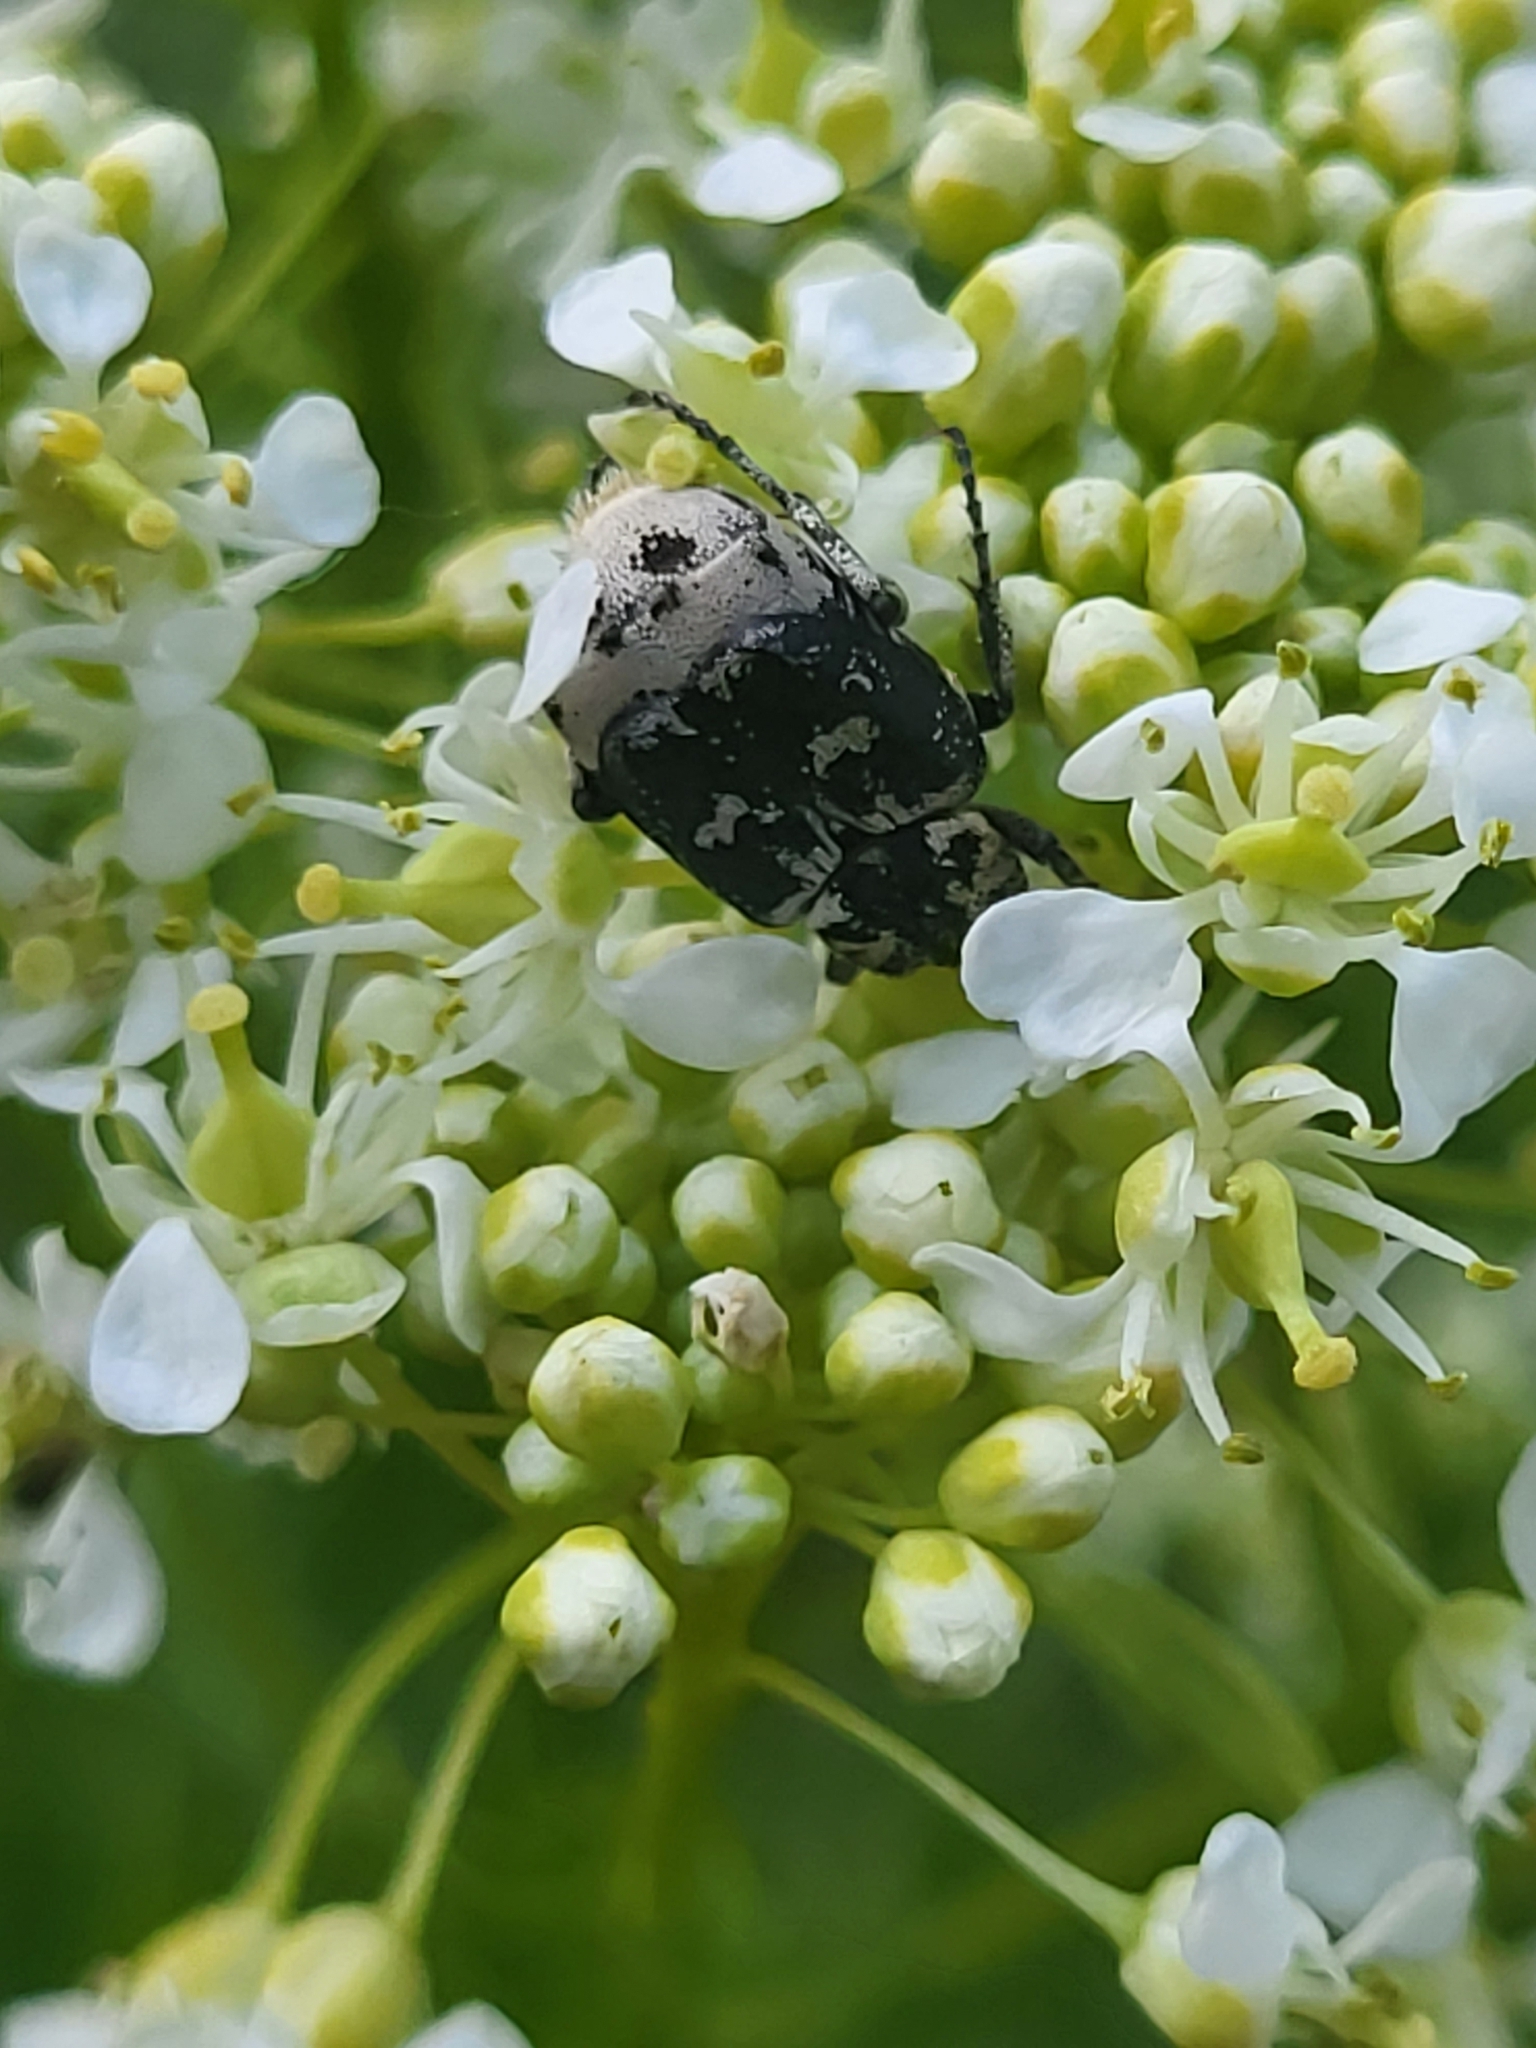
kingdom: Animalia
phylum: Arthropoda
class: Insecta
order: Coleoptera
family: Scarabaeidae
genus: Valgus
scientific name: Valgus hemipterus
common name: Bug flower chafer
